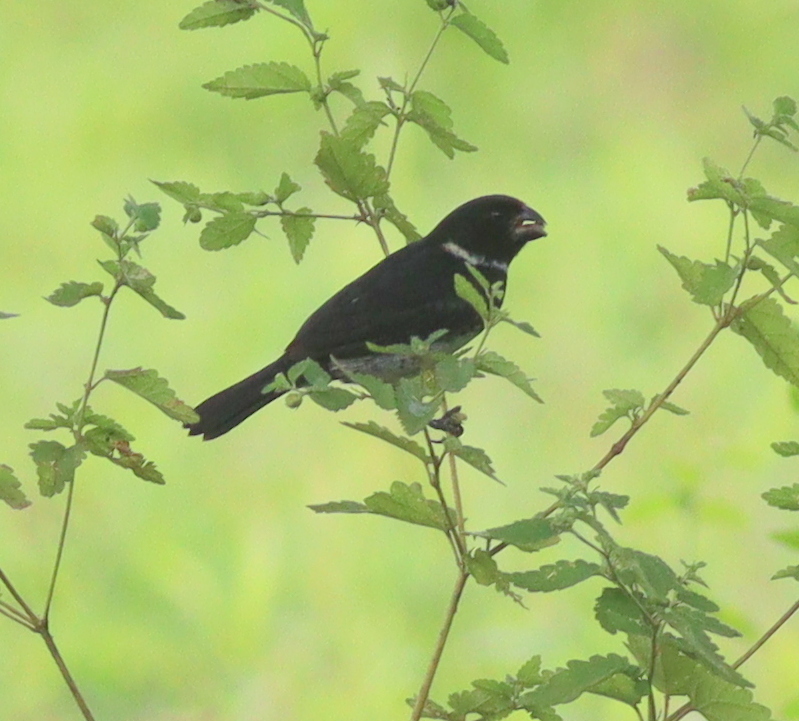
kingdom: Animalia
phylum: Chordata
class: Aves
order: Passeriformes
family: Thraupidae
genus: Sporophila
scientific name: Sporophila corvina
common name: Variable seedeater
